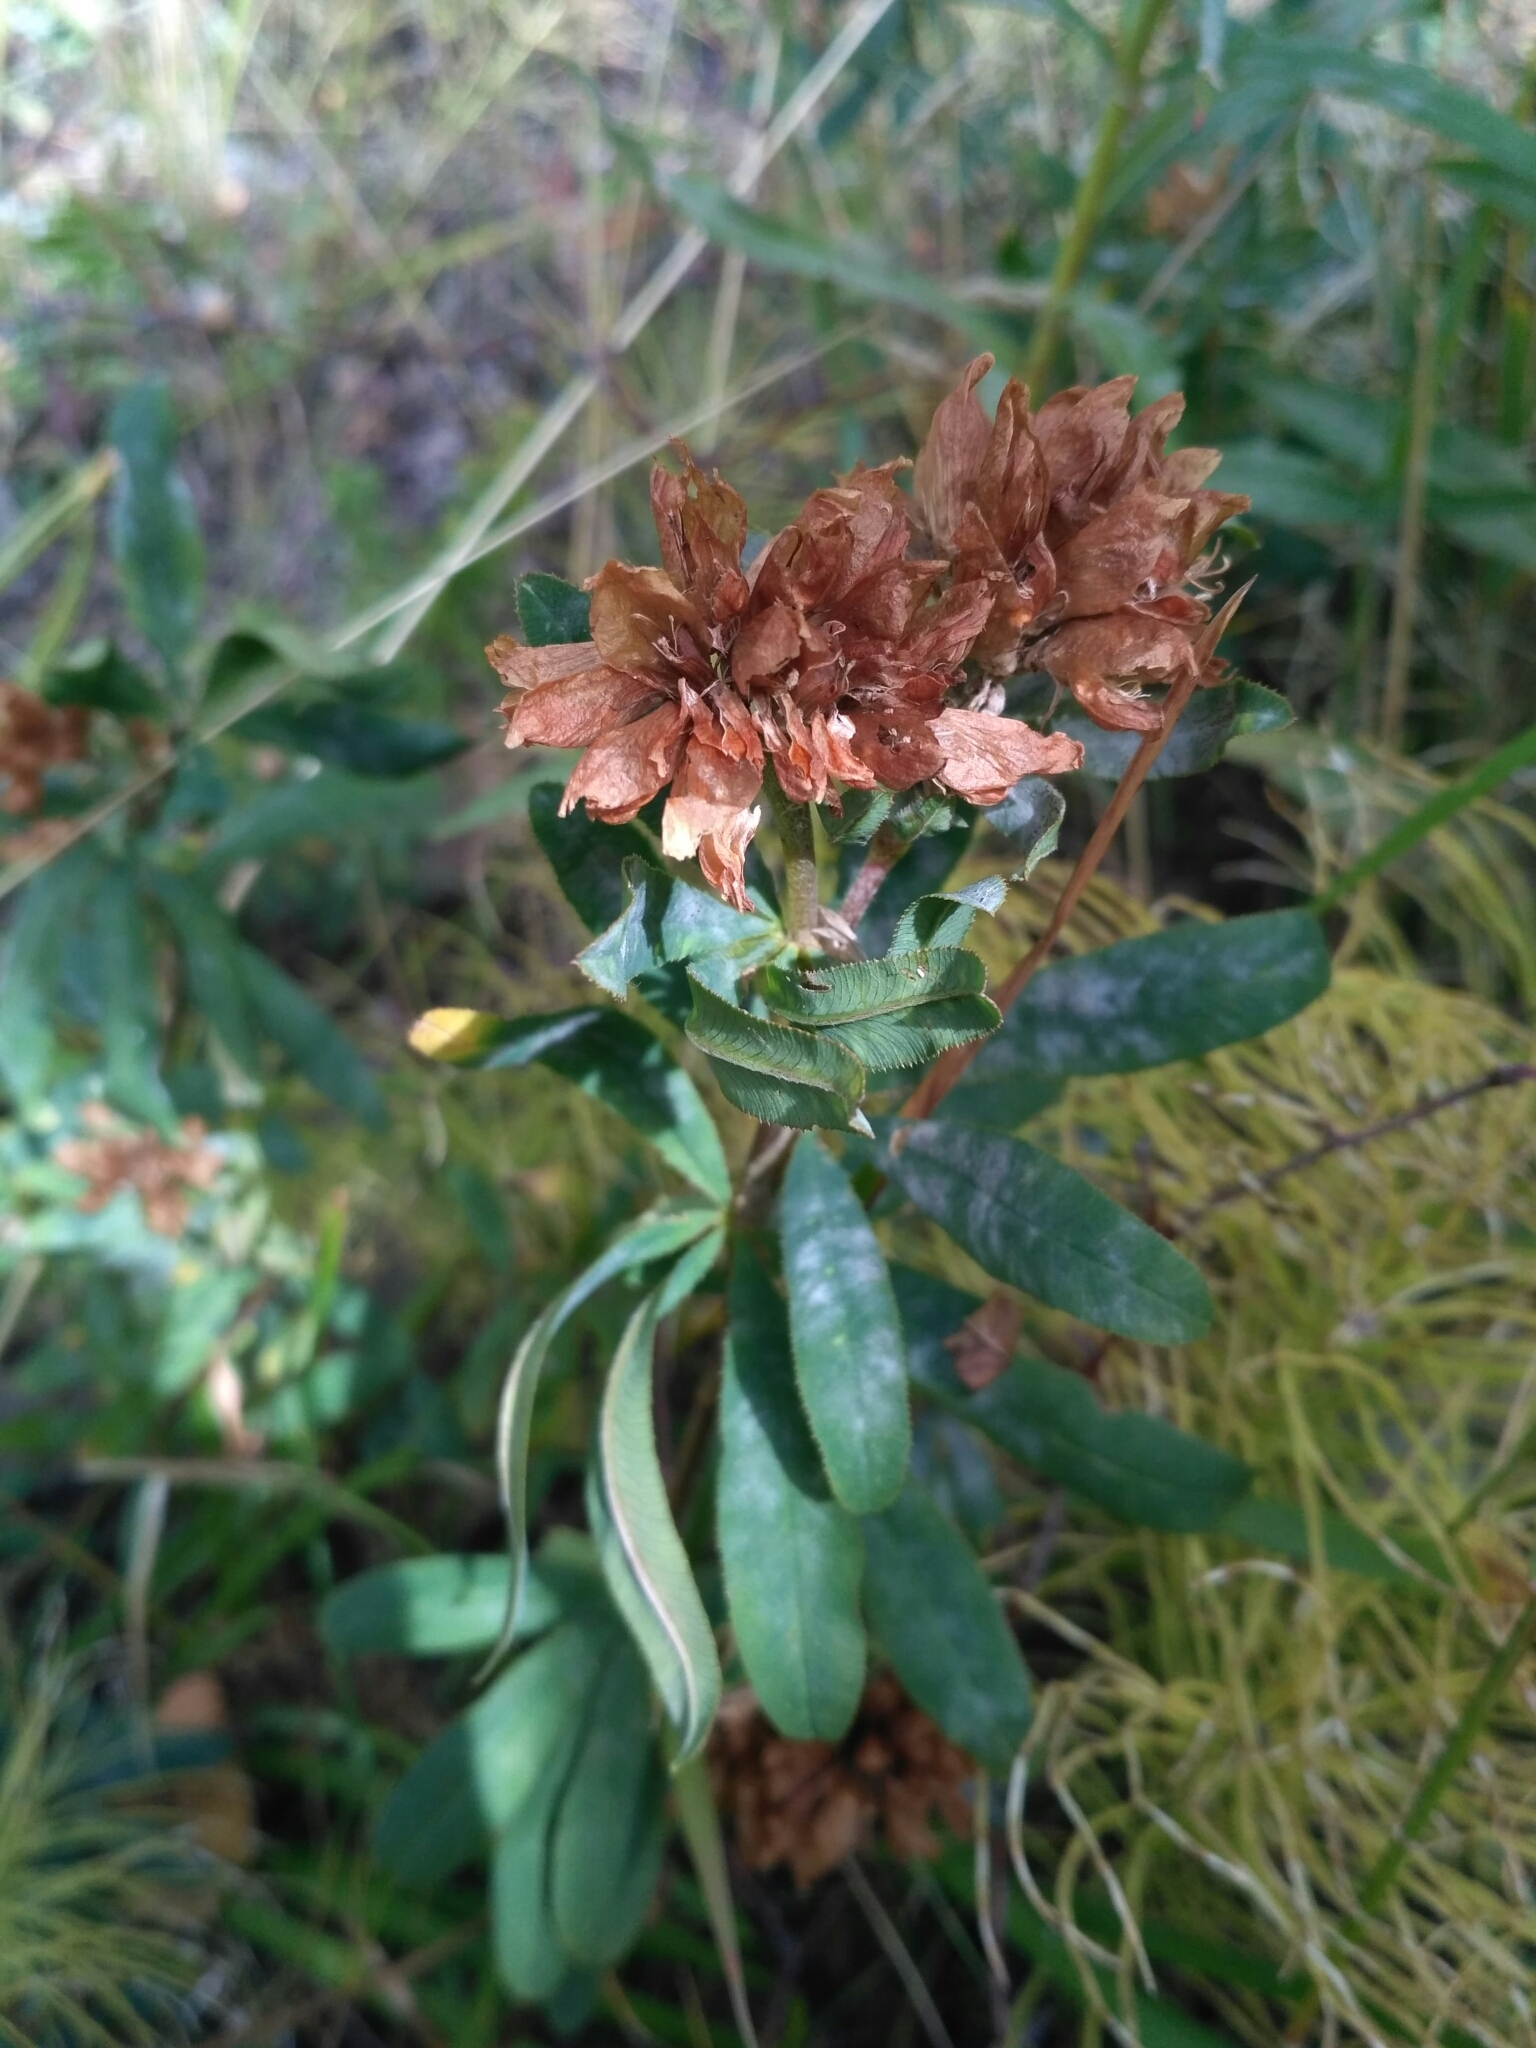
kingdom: Plantae
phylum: Tracheophyta
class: Magnoliopsida
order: Fabales
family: Fabaceae
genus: Trifolium
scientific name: Trifolium lupinaster
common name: Lupine clover
